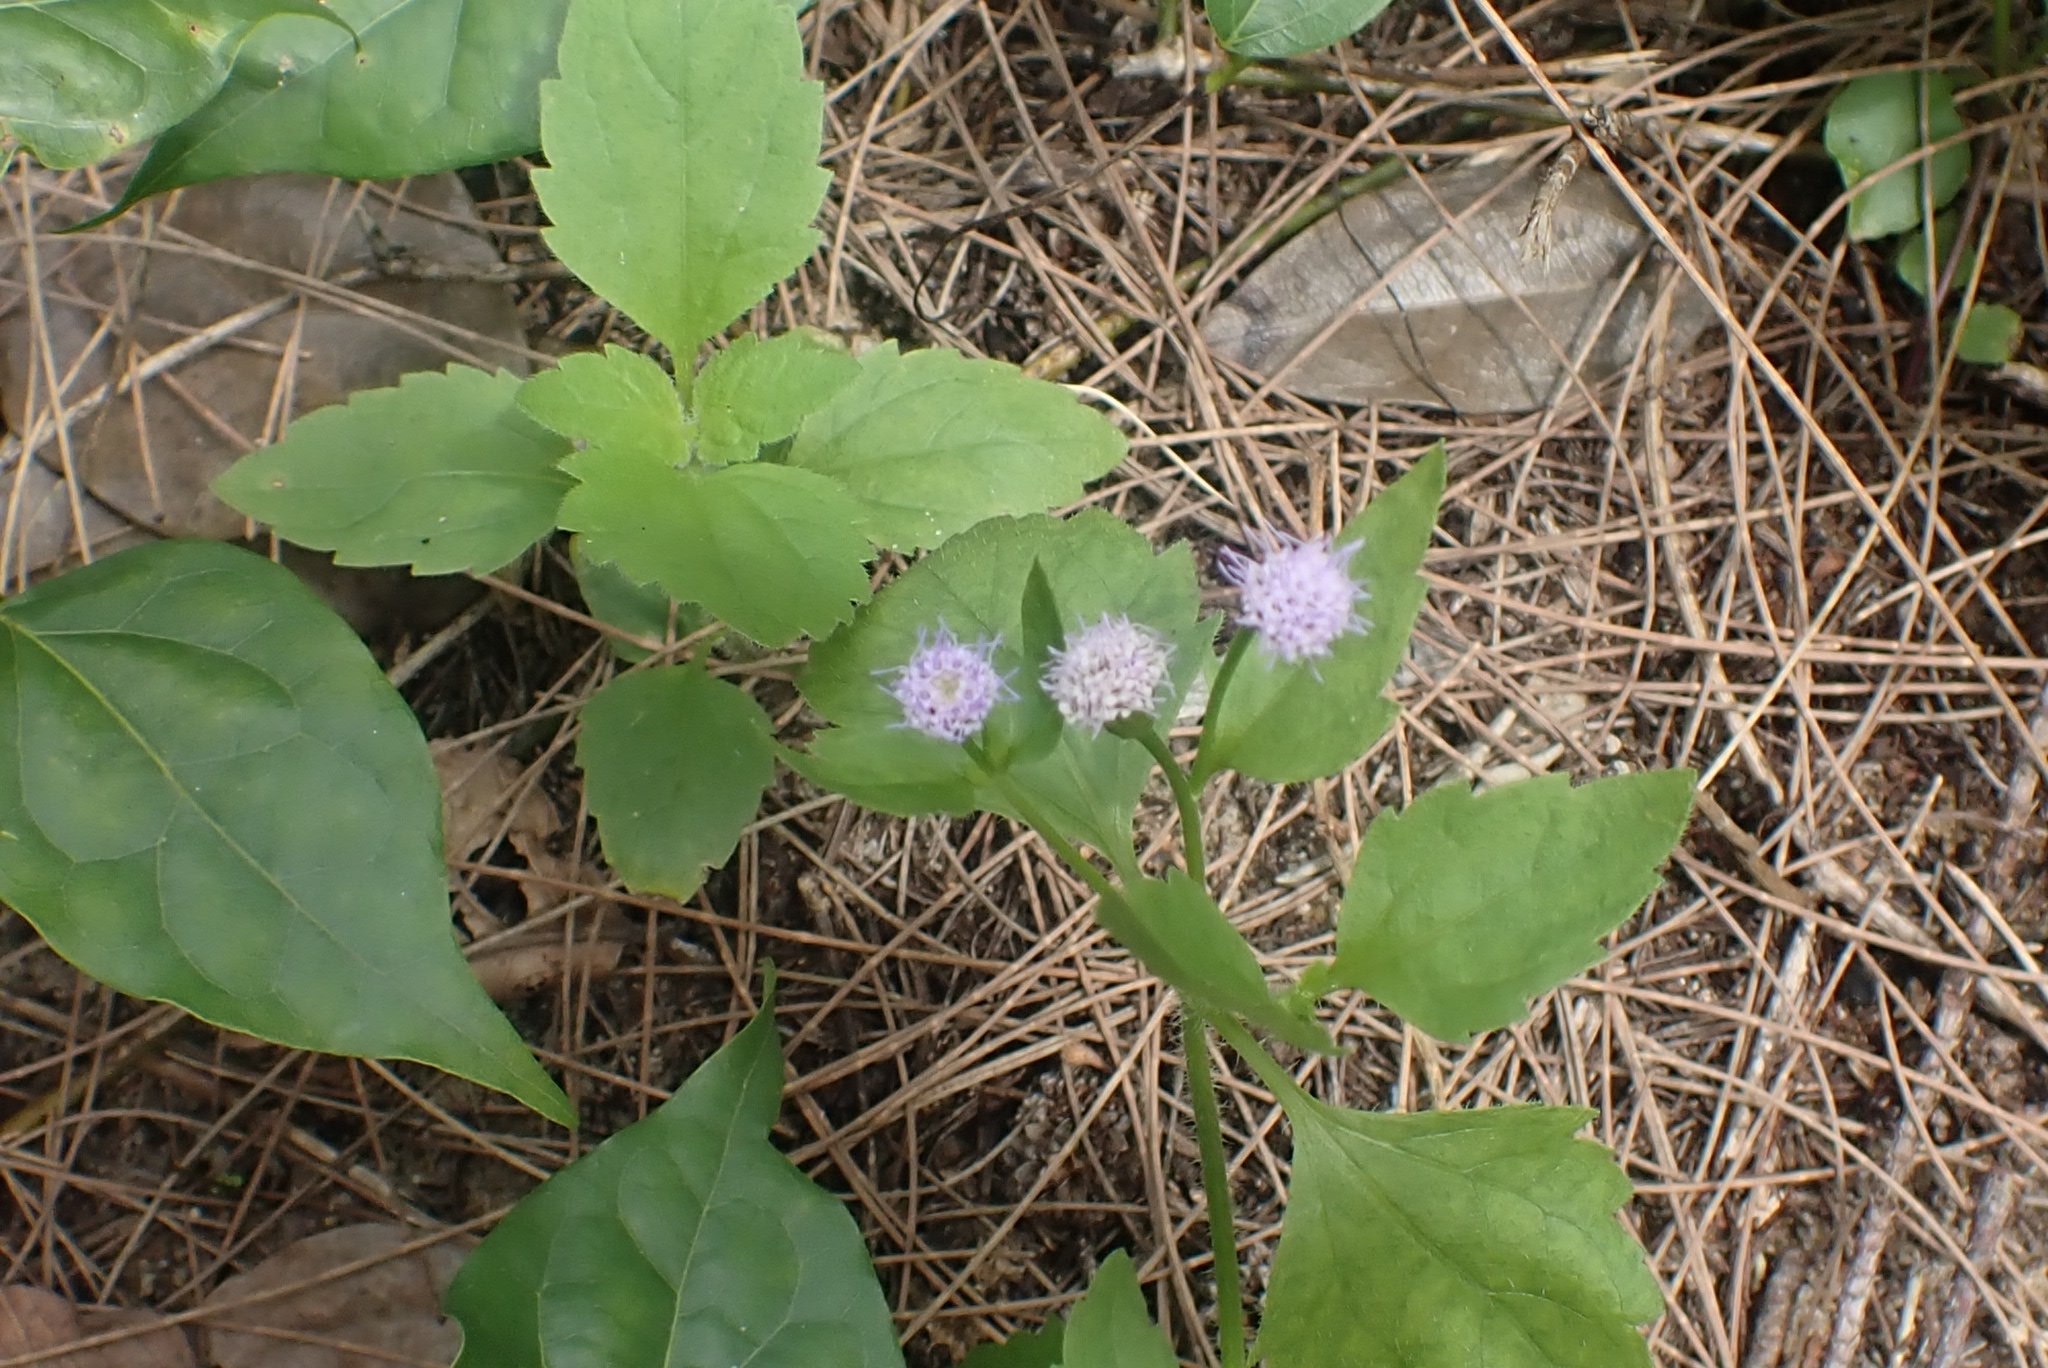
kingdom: Plantae
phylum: Tracheophyta
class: Magnoliopsida
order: Asterales
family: Asteraceae
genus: Praxelis
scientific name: Praxelis clematidea
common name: Praxelis
